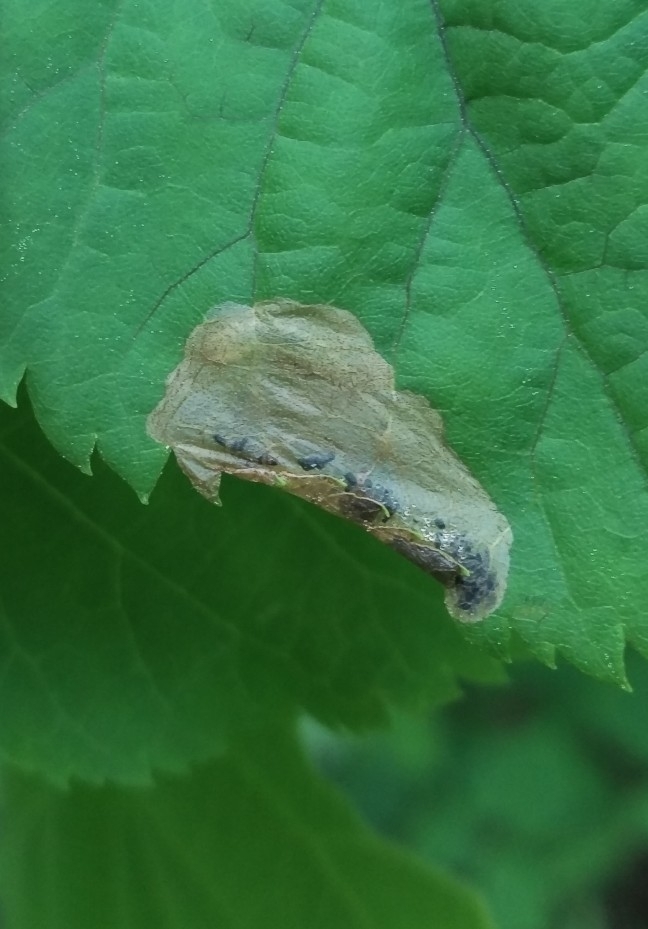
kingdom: Animalia
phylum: Arthropoda
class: Insecta
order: Hymenoptera
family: Tenthredinidae
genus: Parna
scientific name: Parna apicalis
